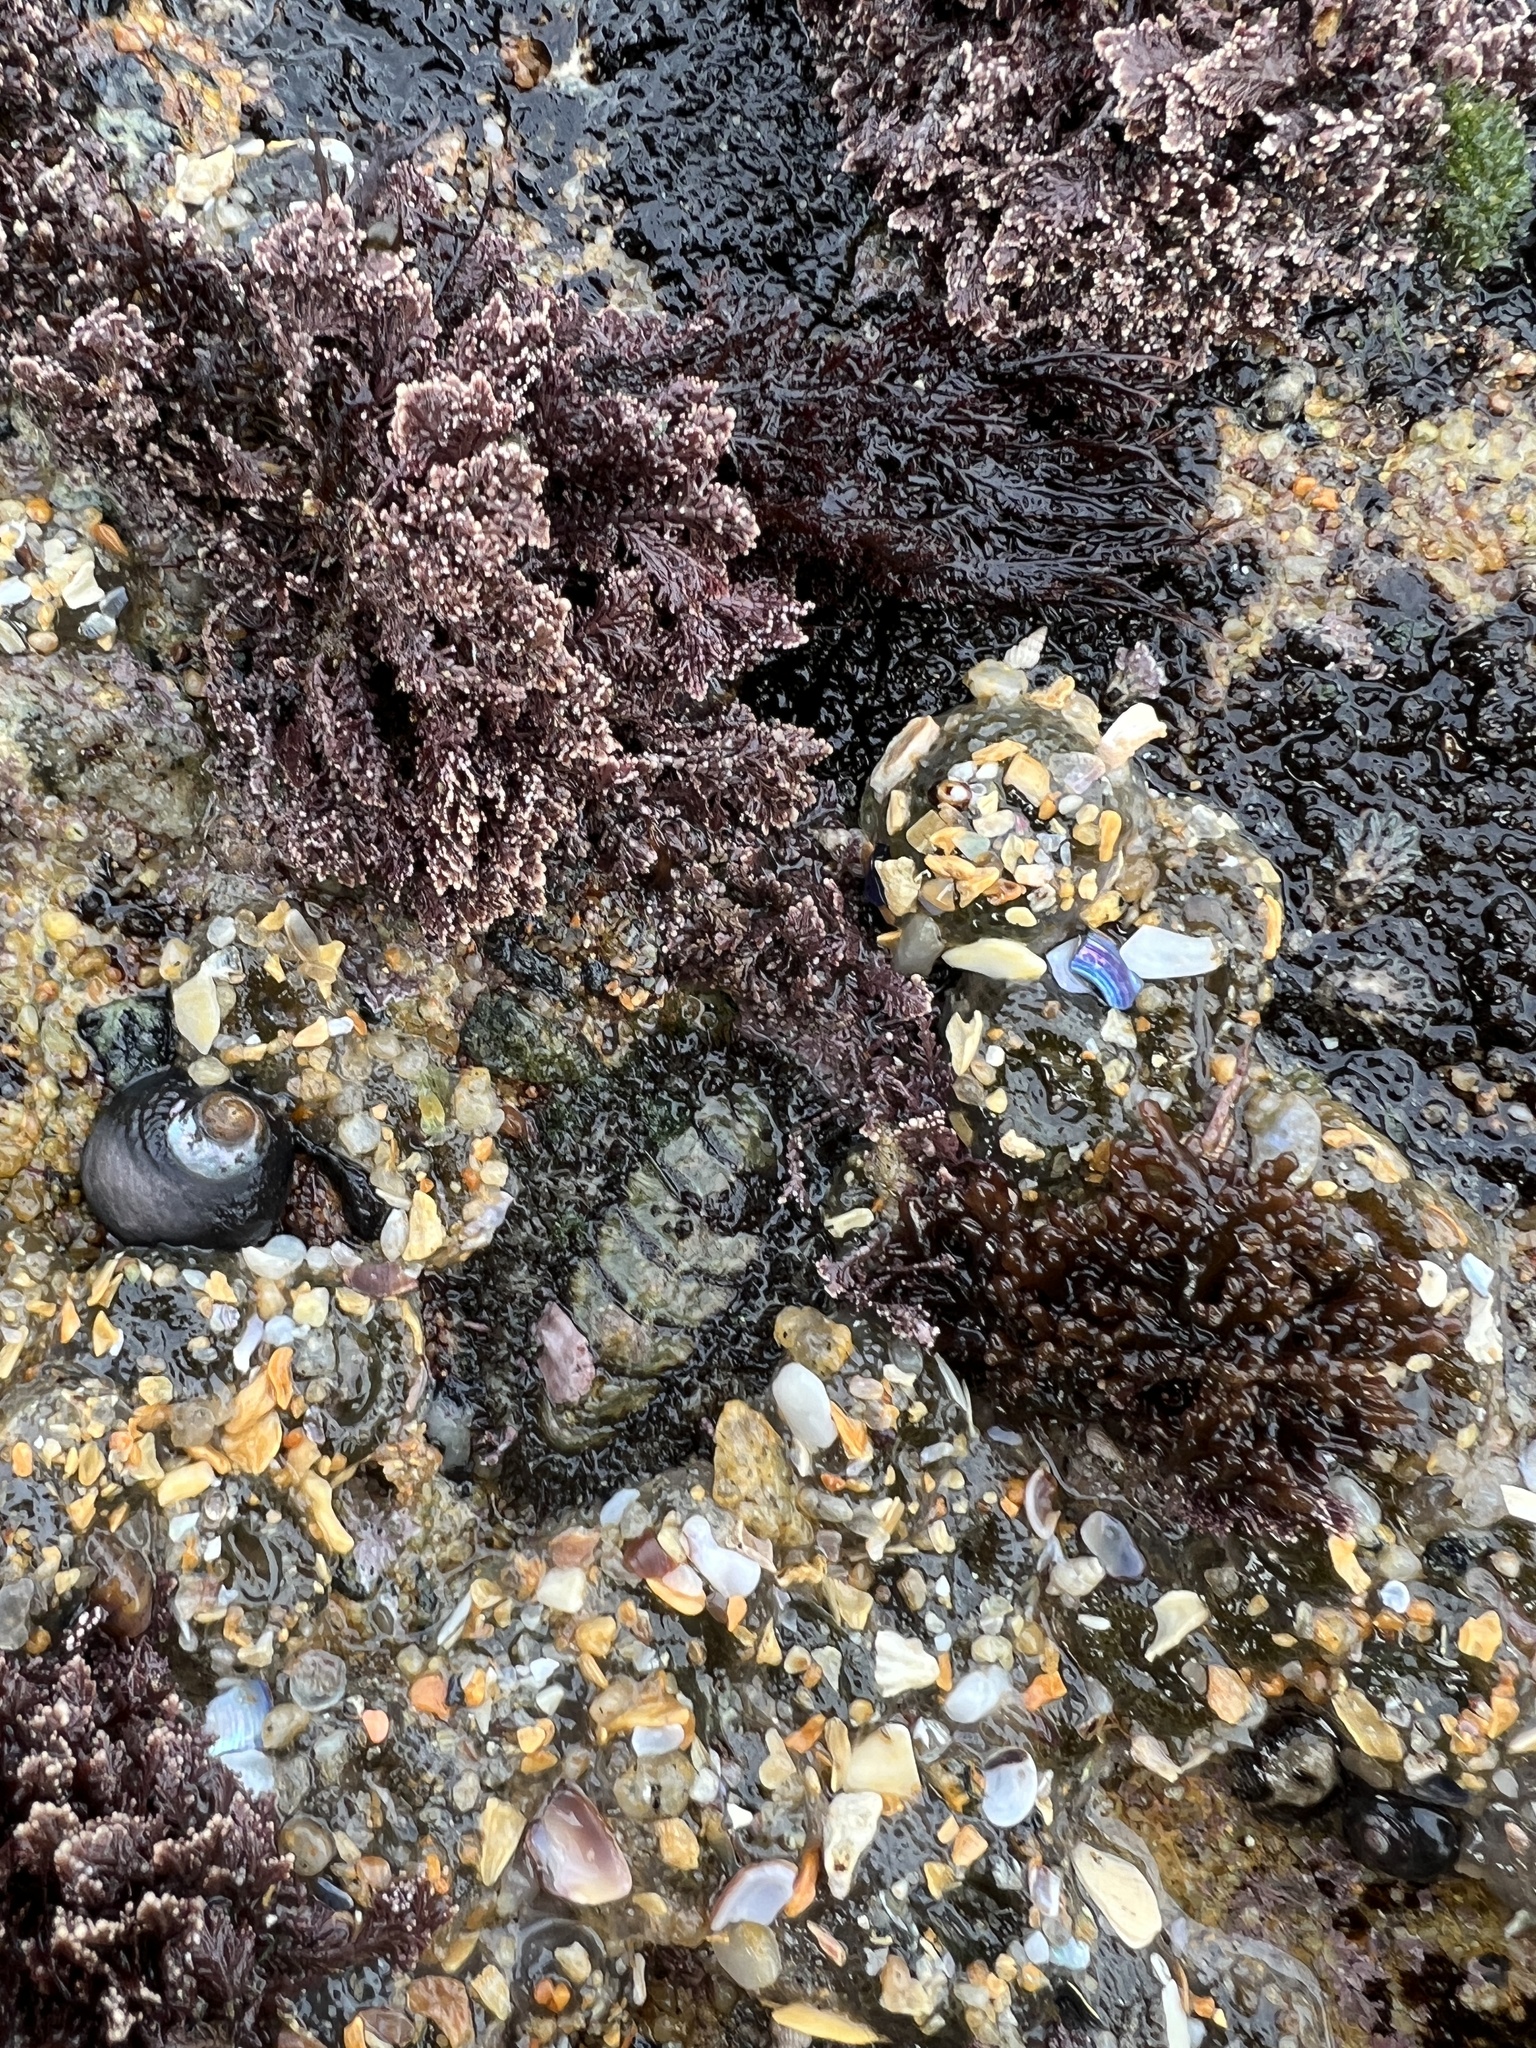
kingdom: Animalia
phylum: Mollusca
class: Polyplacophora
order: Chitonida
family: Mopaliidae
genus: Mopalia
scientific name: Mopalia muscosa
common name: Mossy chiton
